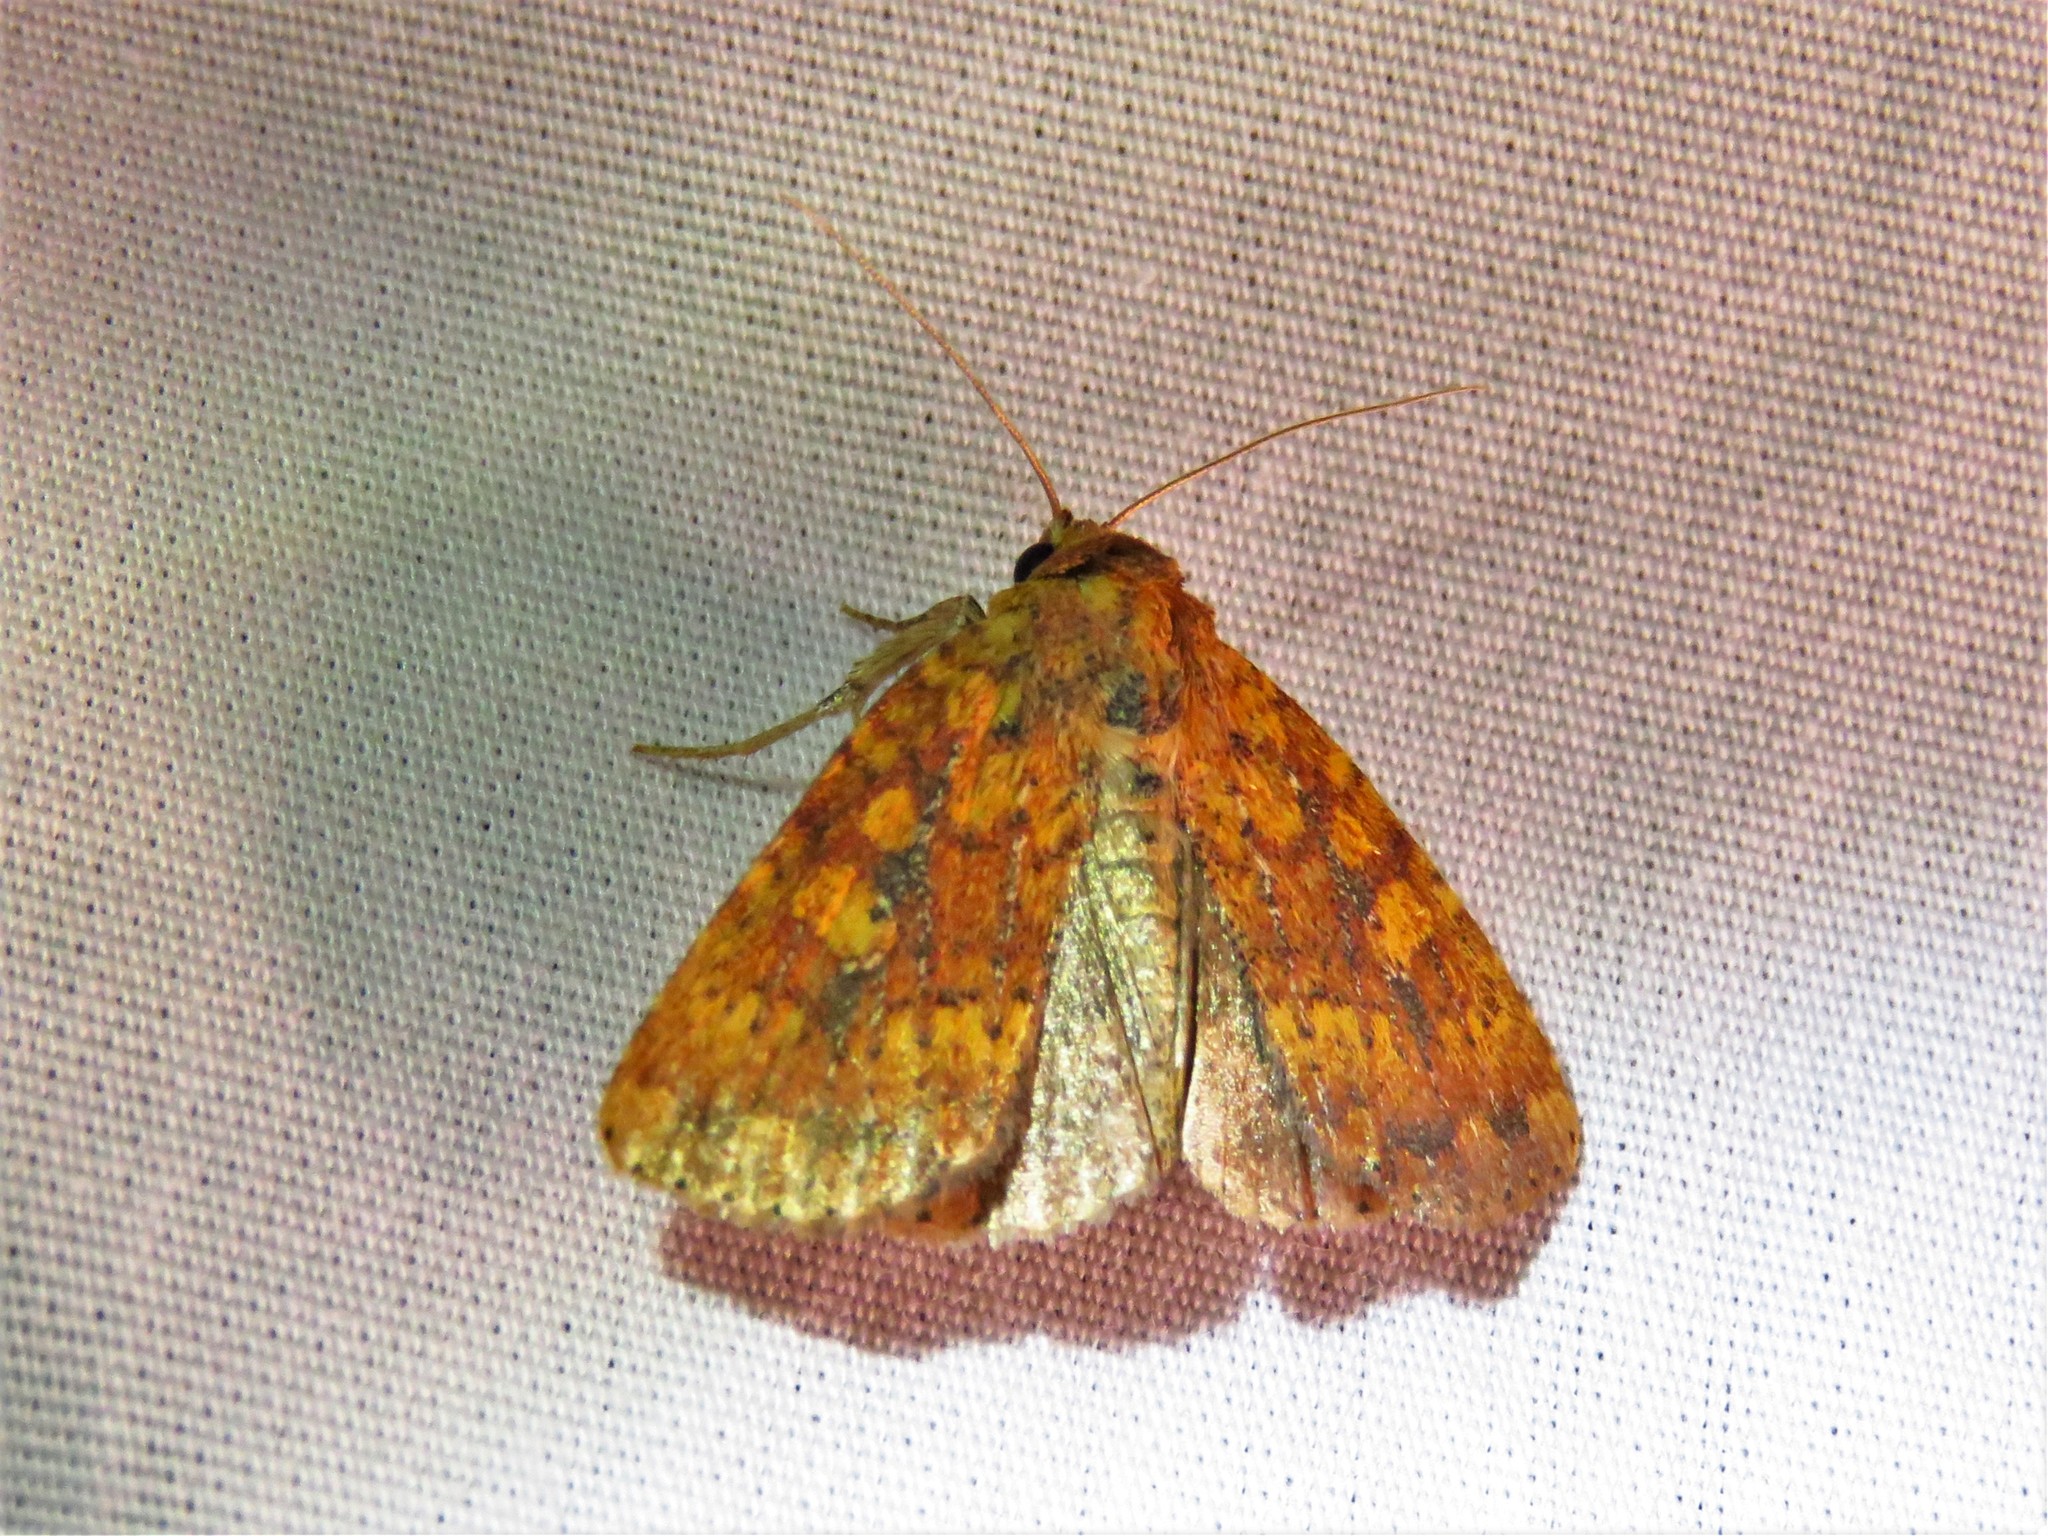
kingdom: Animalia
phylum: Arthropoda
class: Insecta
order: Lepidoptera
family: Noctuidae
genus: Perigea
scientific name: Perigea xanthioides
